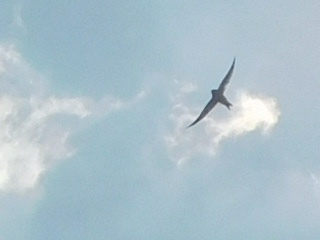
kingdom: Animalia
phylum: Chordata
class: Aves
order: Passeriformes
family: Hirundinidae
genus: Hirundo
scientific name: Hirundo rustica
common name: Barn swallow
